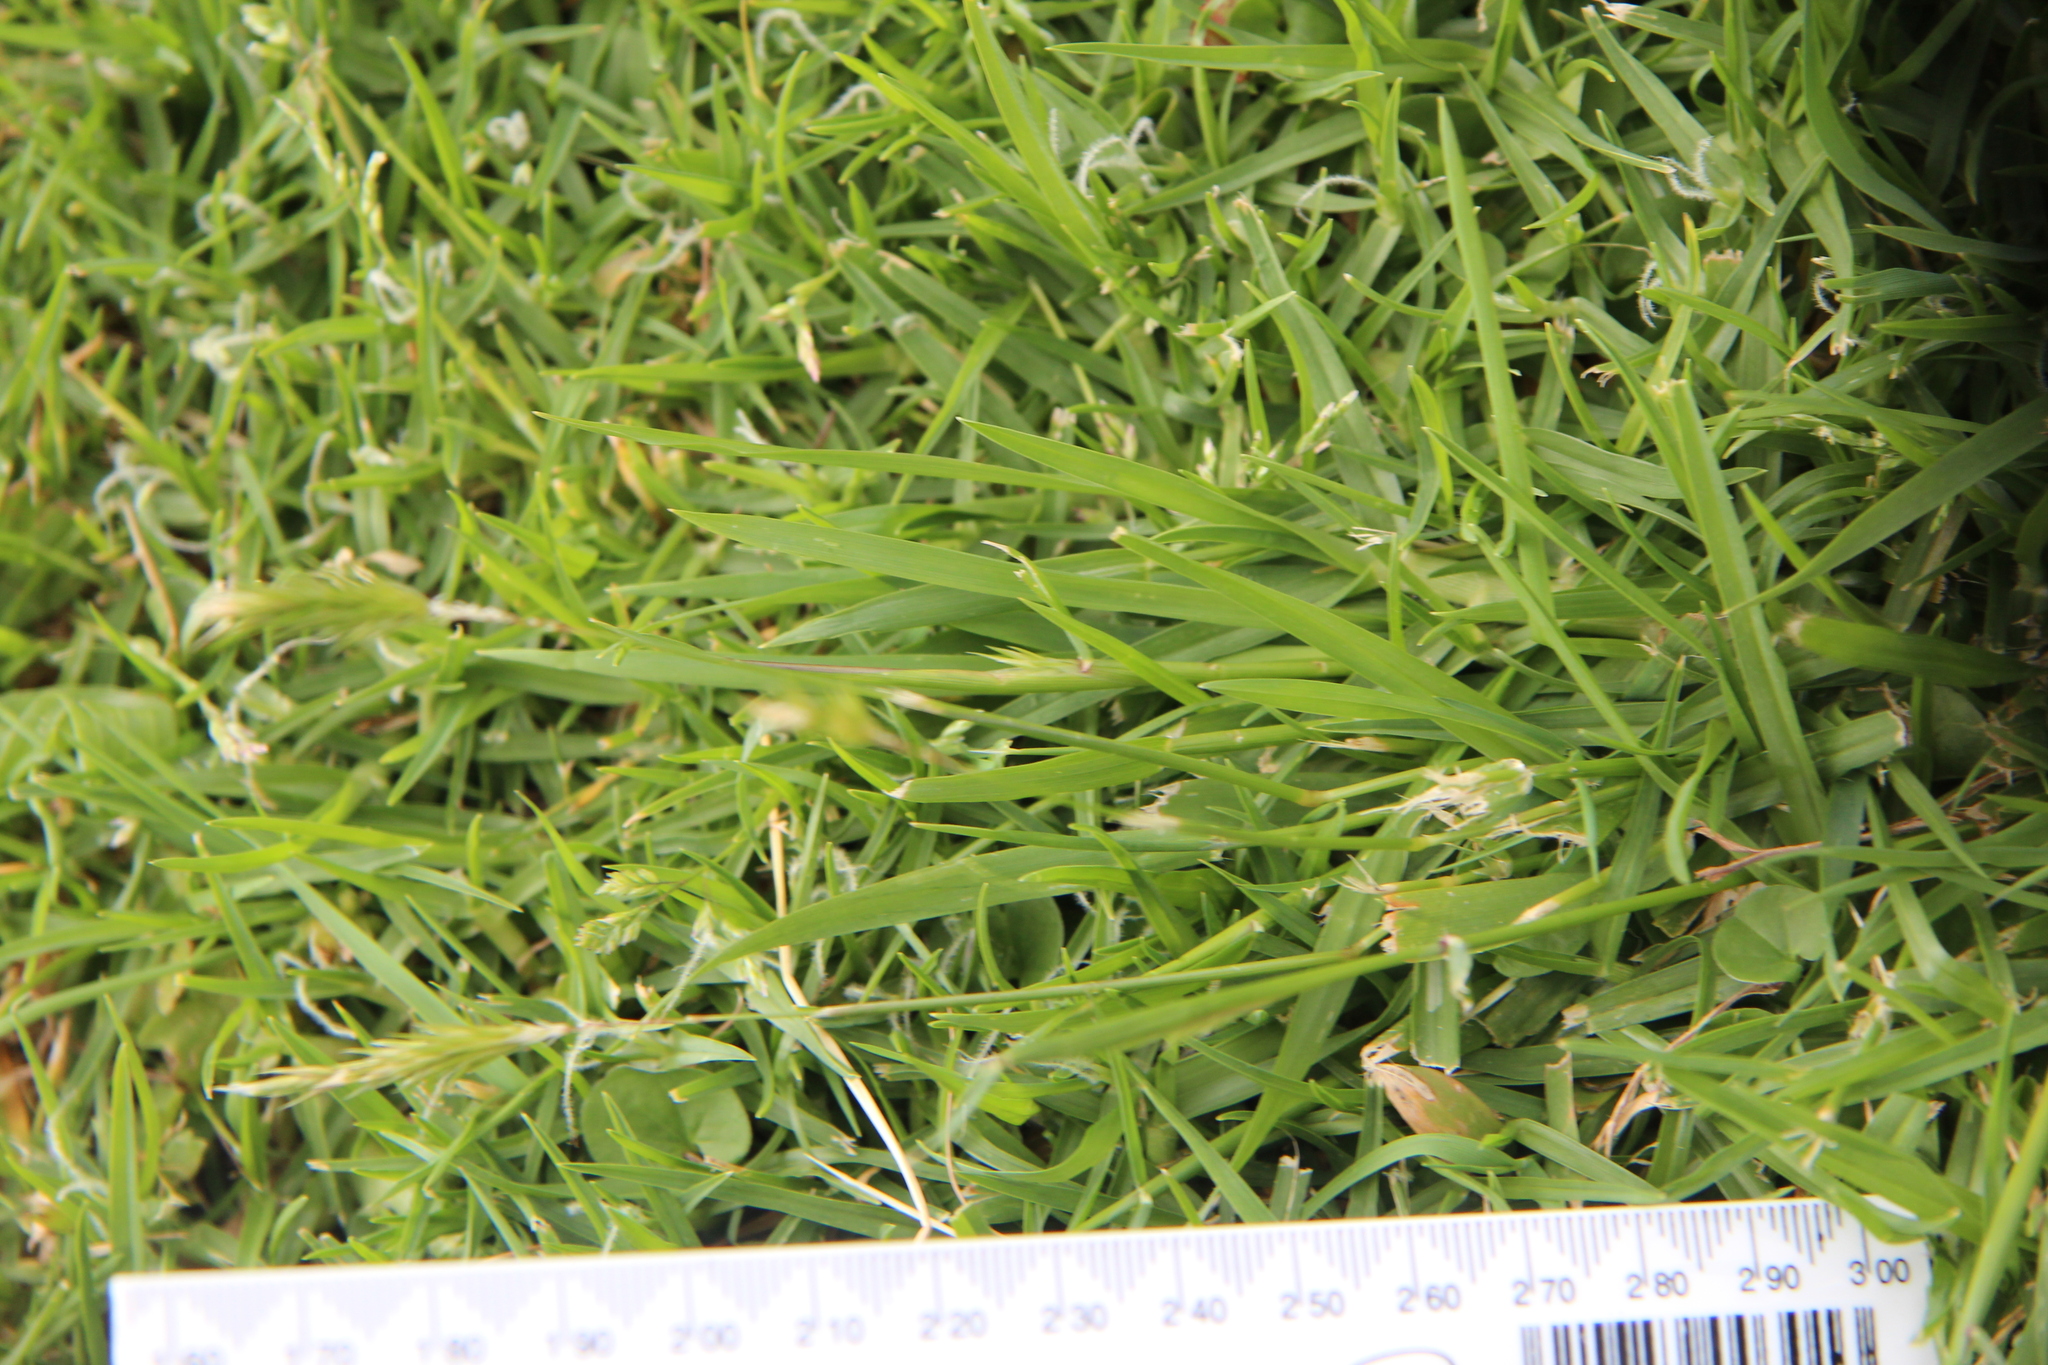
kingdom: Plantae
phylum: Tracheophyta
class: Liliopsida
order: Poales
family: Poaceae
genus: Anthoxanthum
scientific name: Anthoxanthum odoratum
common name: Sweet vernalgrass
